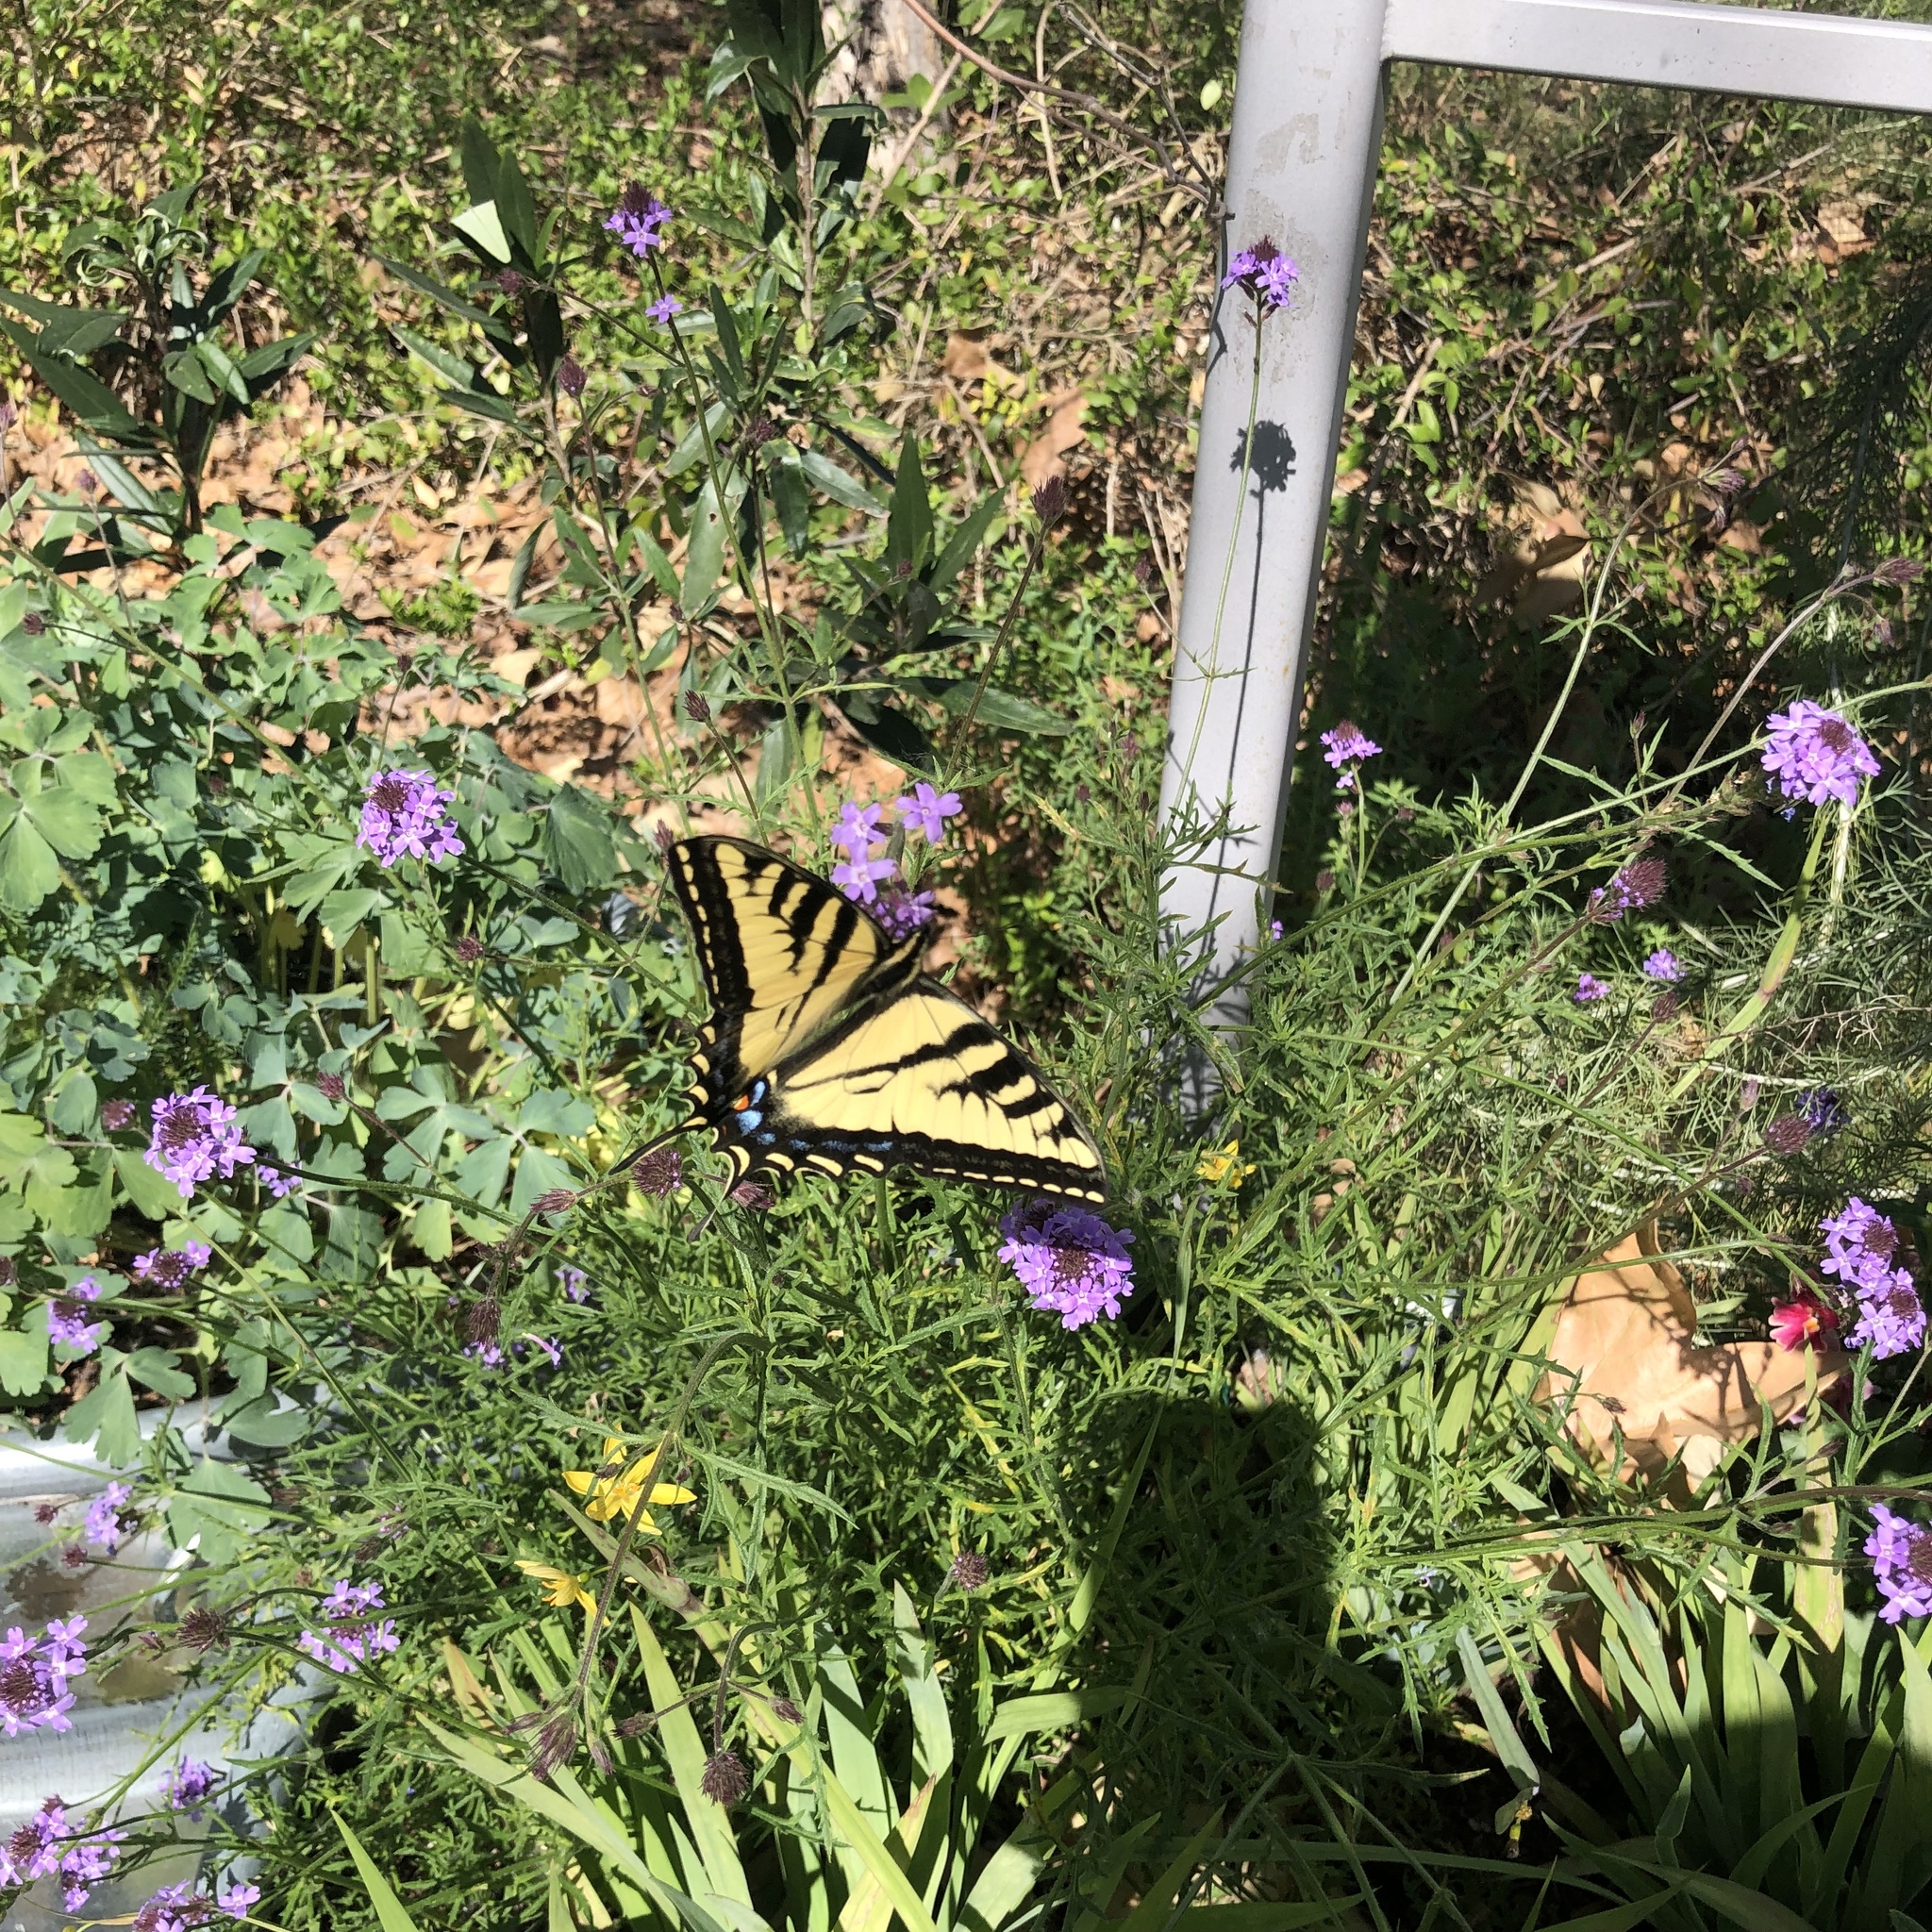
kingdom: Animalia
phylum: Arthropoda
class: Insecta
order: Lepidoptera
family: Papilionidae
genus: Papilio
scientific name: Papilio rutulus
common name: Western tiger swallowtail
